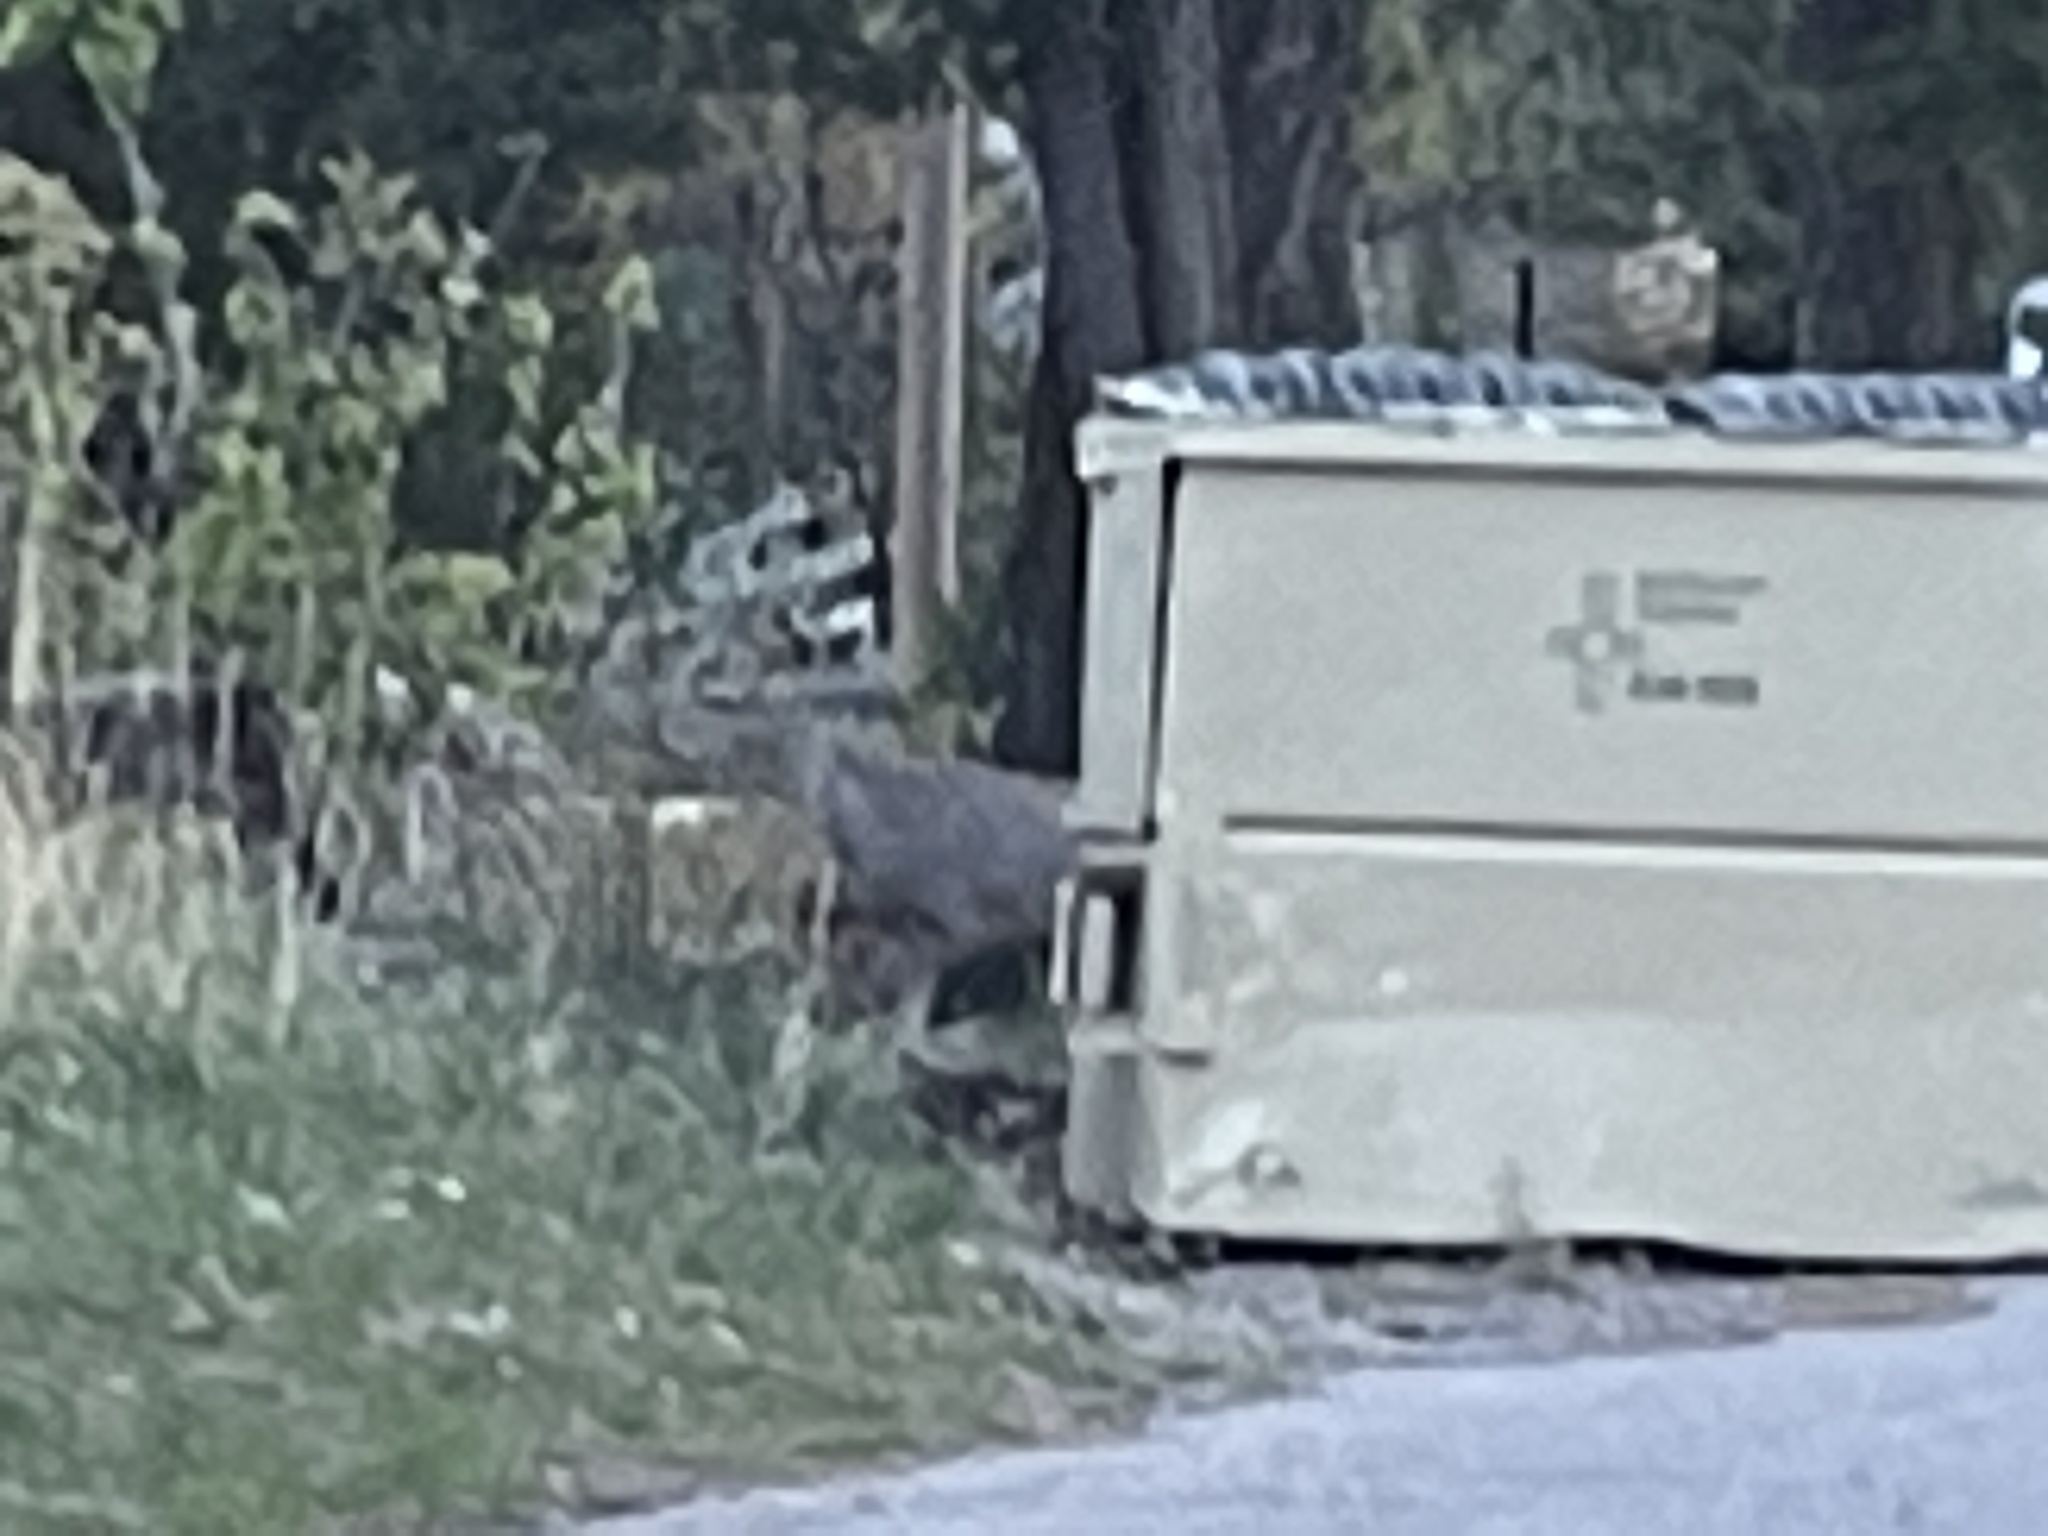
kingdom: Animalia
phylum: Chordata
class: Mammalia
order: Artiodactyla
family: Cervidae
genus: Odocoileus
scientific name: Odocoileus hemionus
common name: Mule deer
